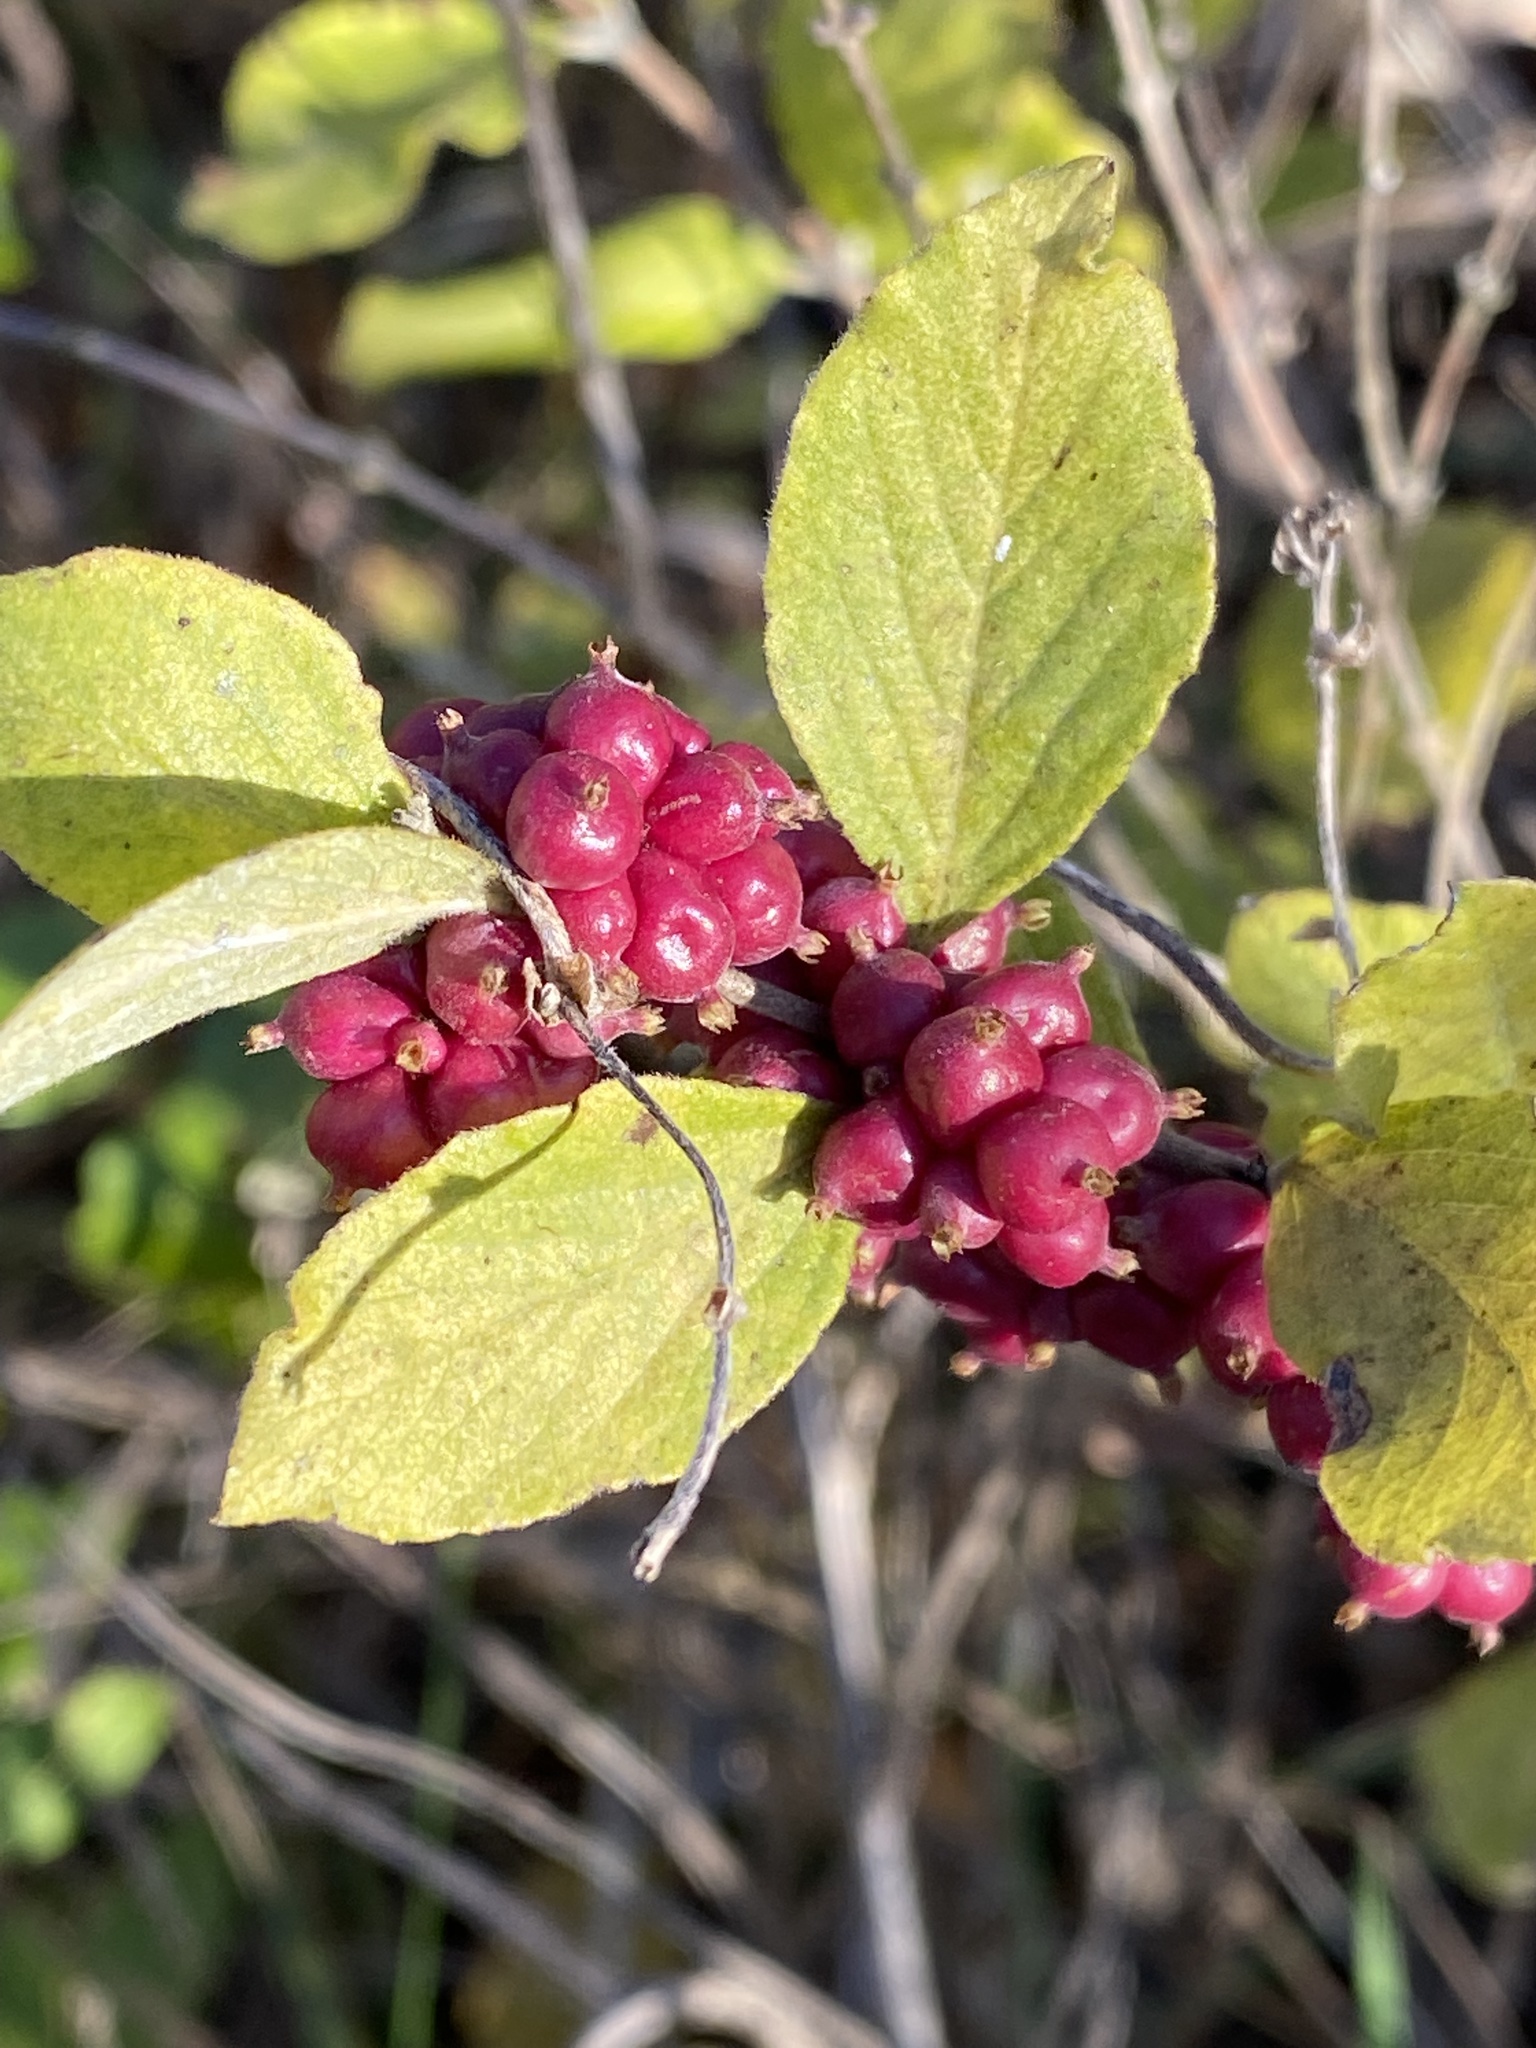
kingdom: Plantae
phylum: Tracheophyta
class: Magnoliopsida
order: Dipsacales
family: Caprifoliaceae
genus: Symphoricarpos
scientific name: Symphoricarpos orbiculatus
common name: Coralberry
